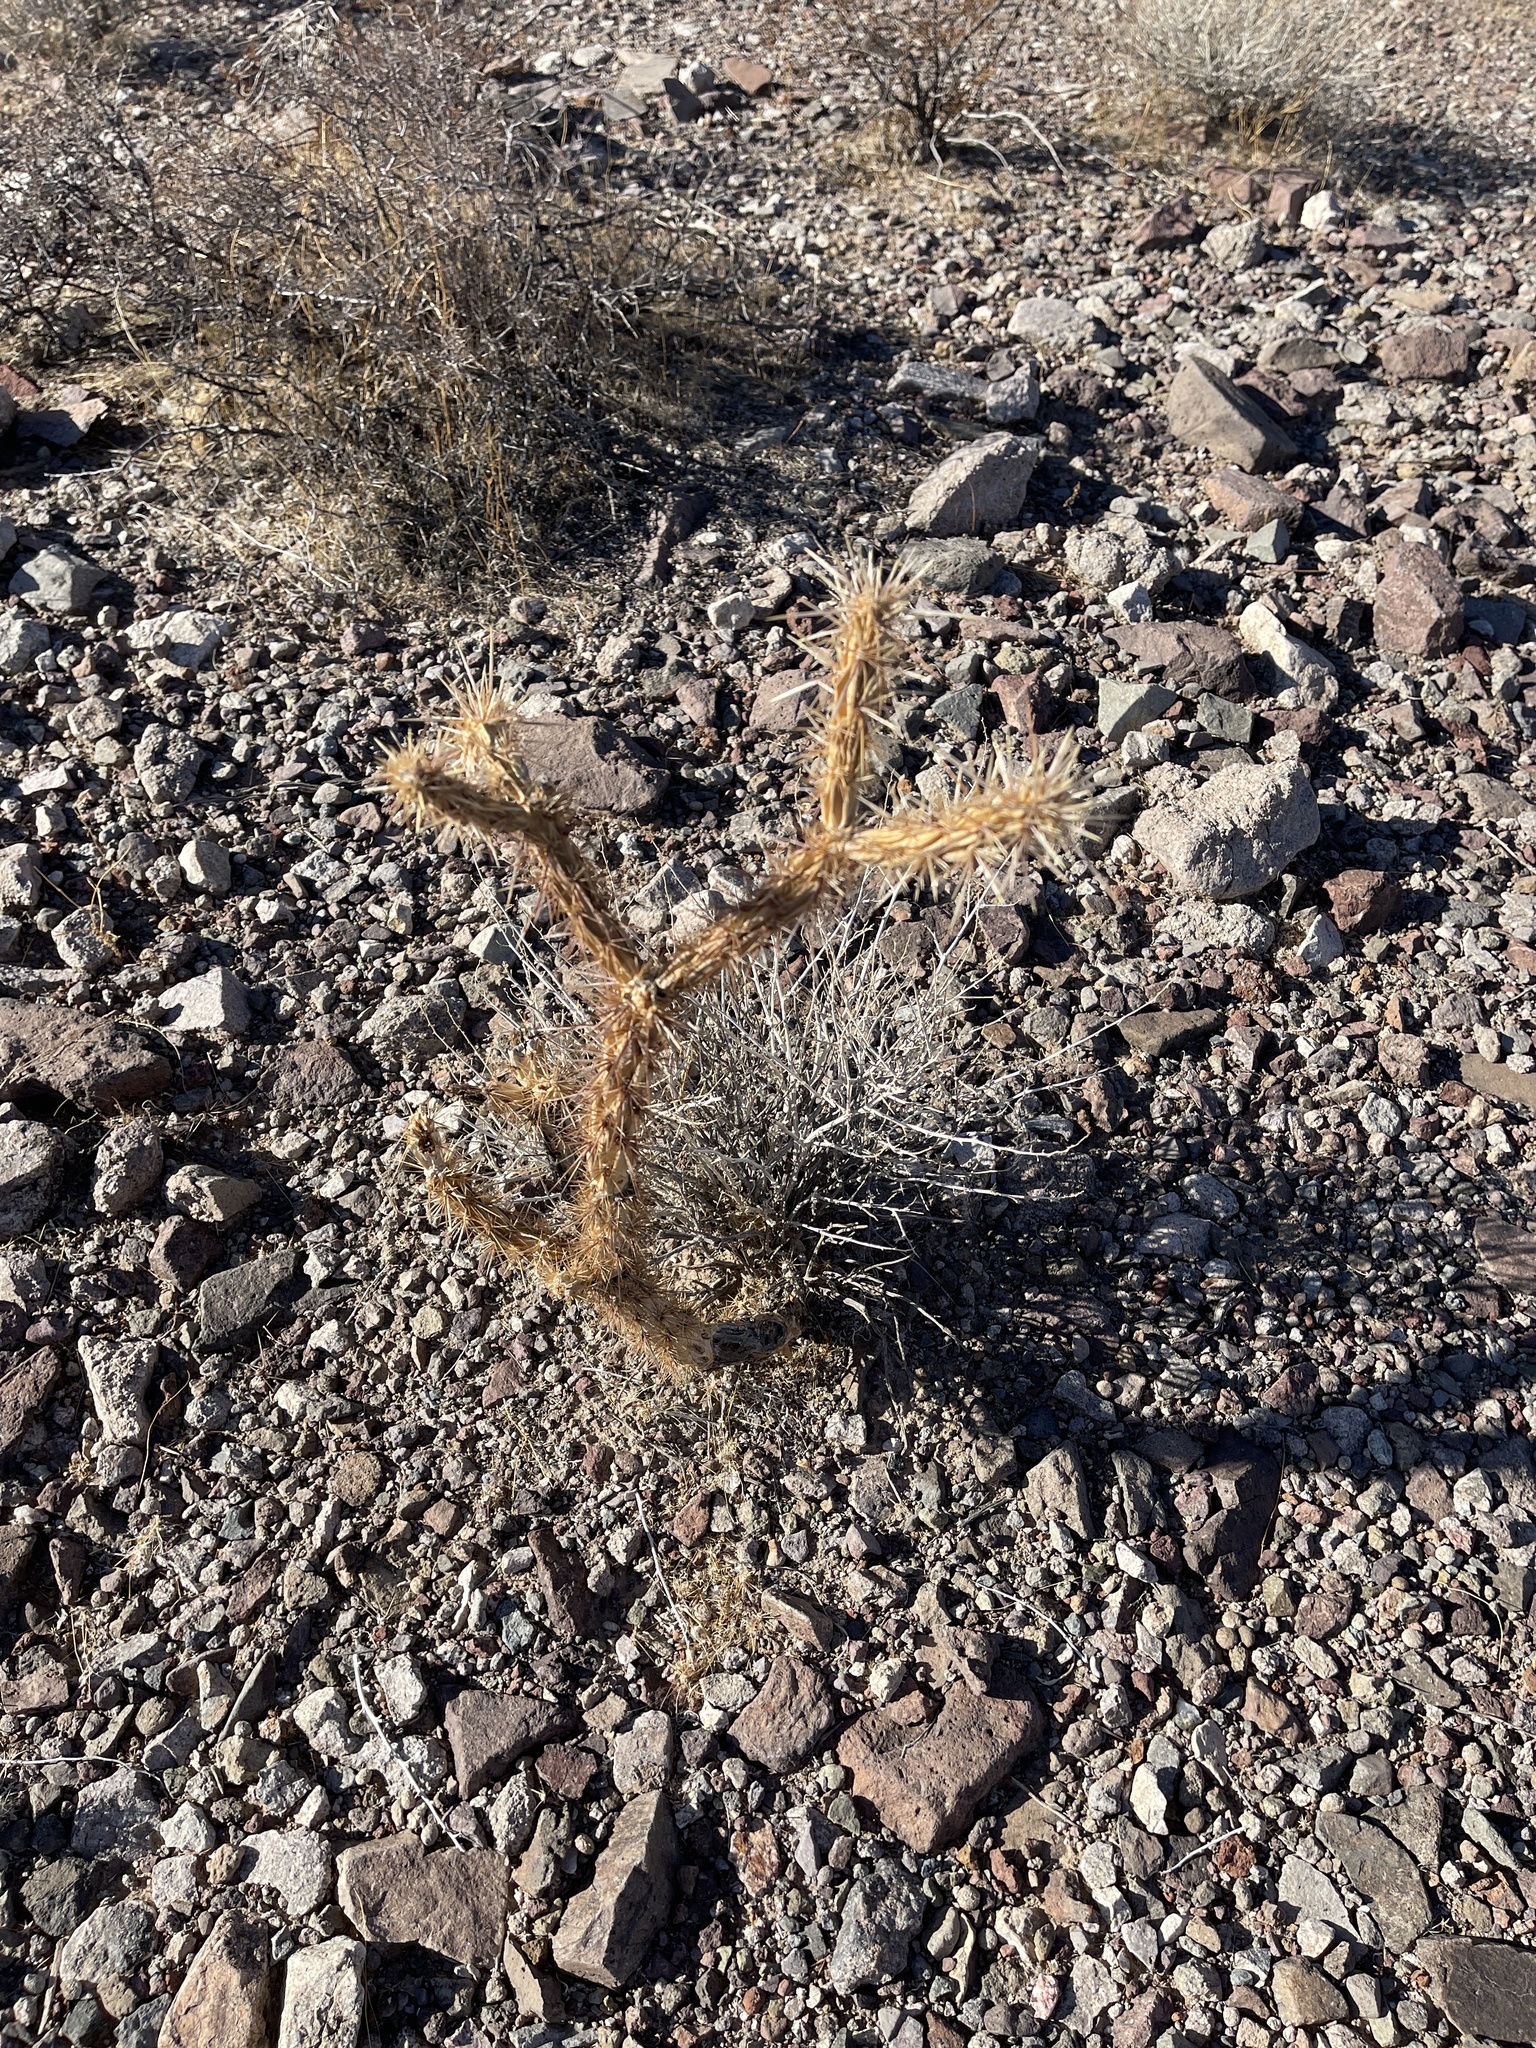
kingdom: Plantae
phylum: Tracheophyta
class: Magnoliopsida
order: Caryophyllales
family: Cactaceae
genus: Cylindropuntia
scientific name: Cylindropuntia acanthocarpa
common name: Buckhorn cholla
